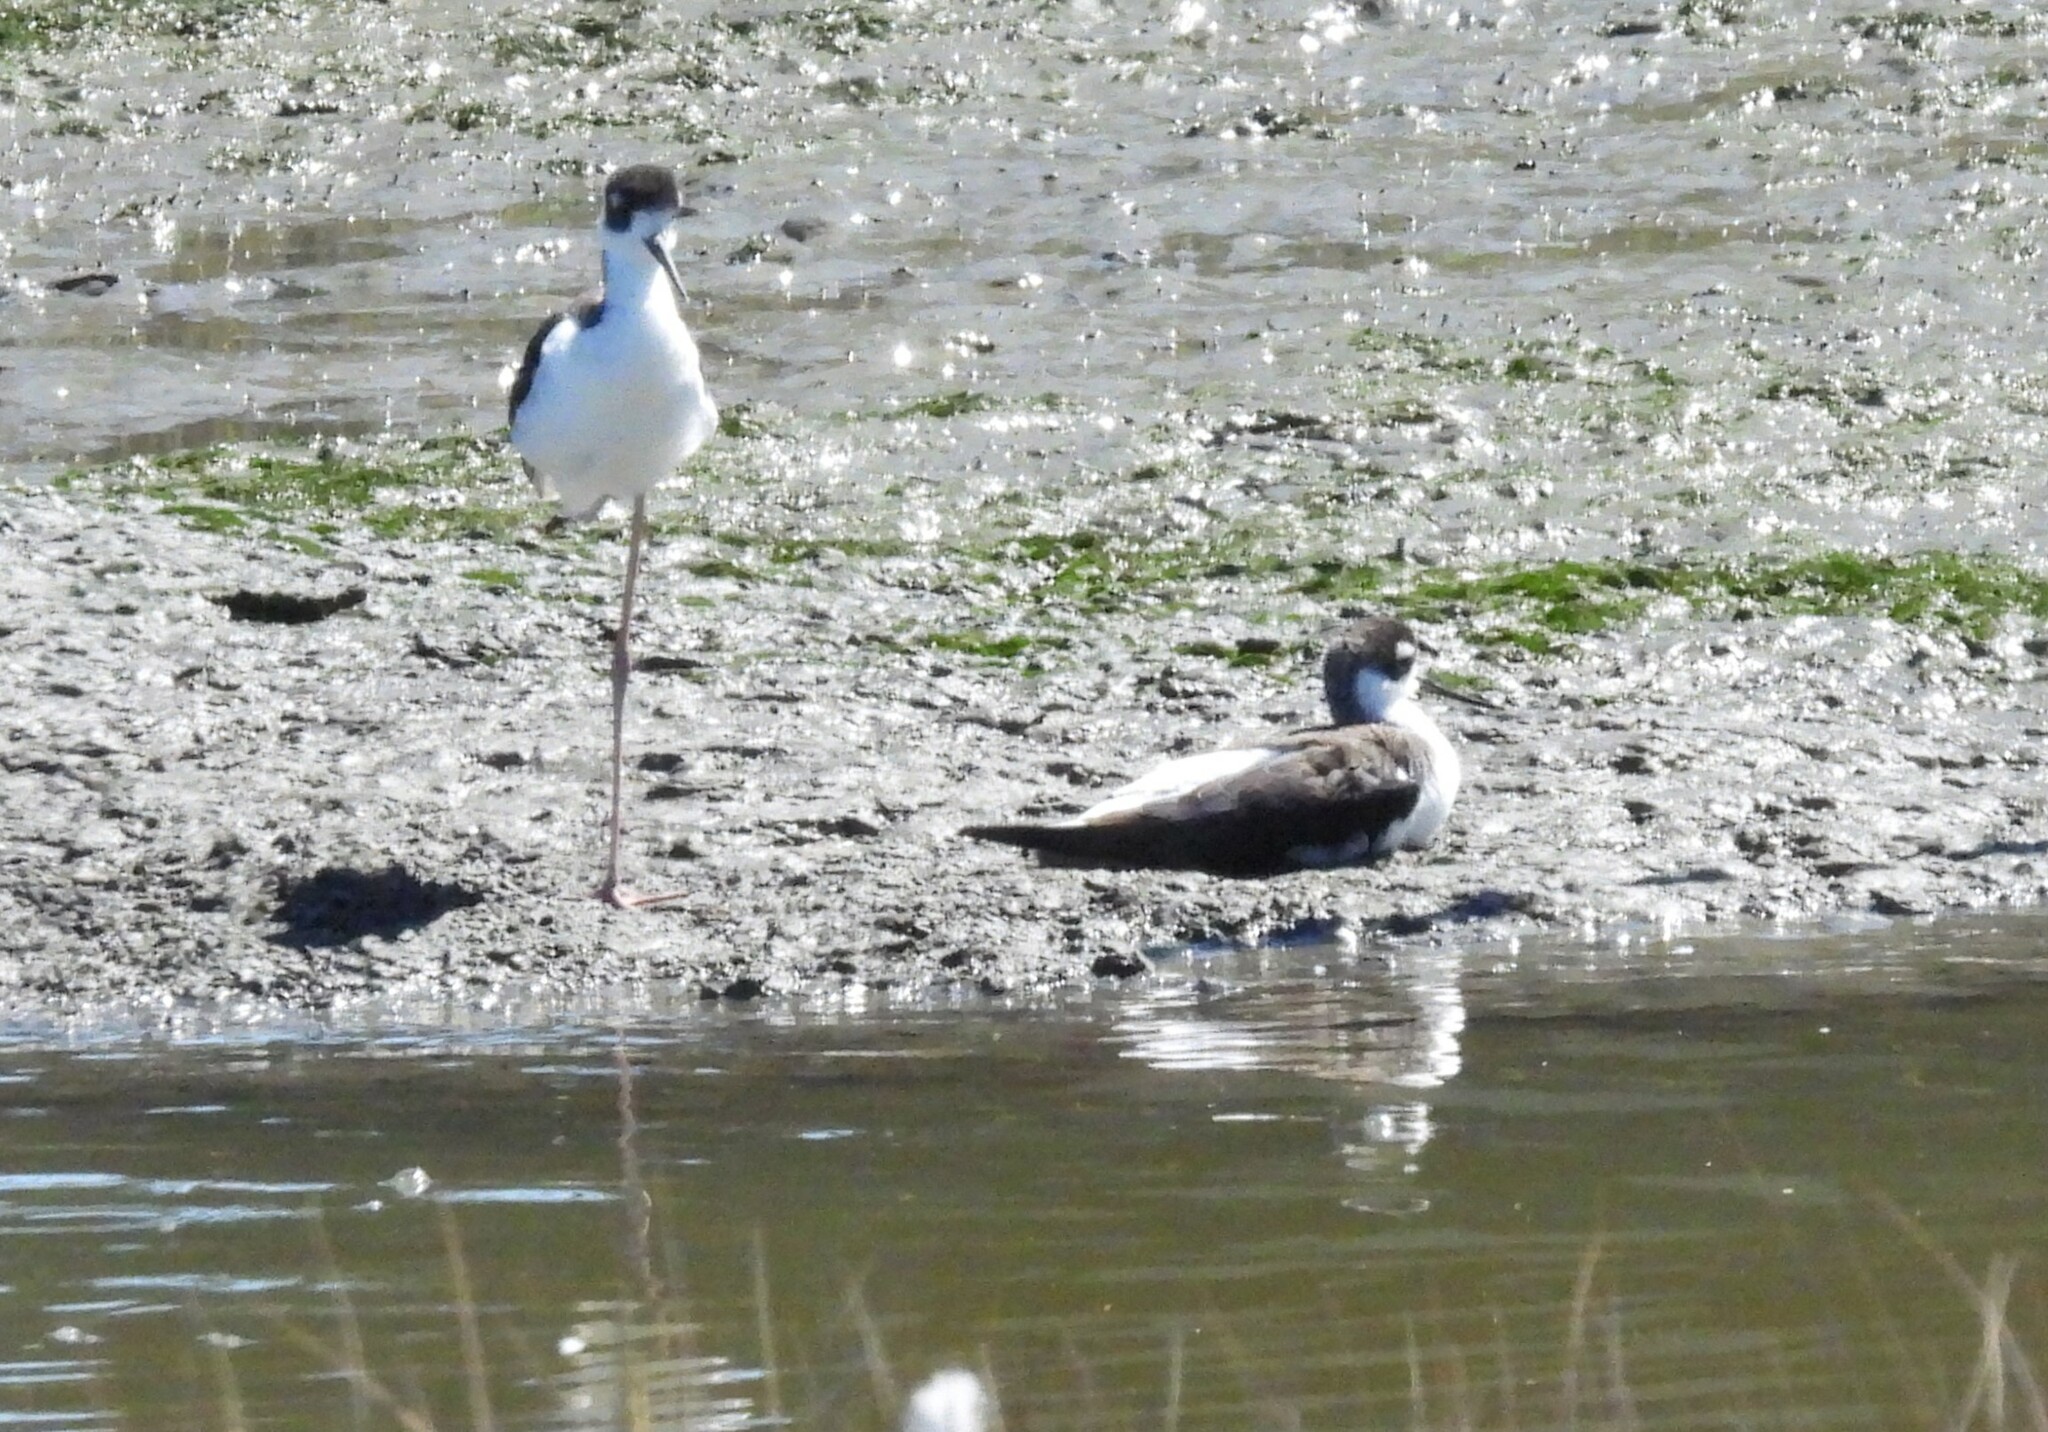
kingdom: Animalia
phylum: Chordata
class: Aves
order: Charadriiformes
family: Recurvirostridae
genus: Himantopus
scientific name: Himantopus mexicanus
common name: Black-necked stilt
